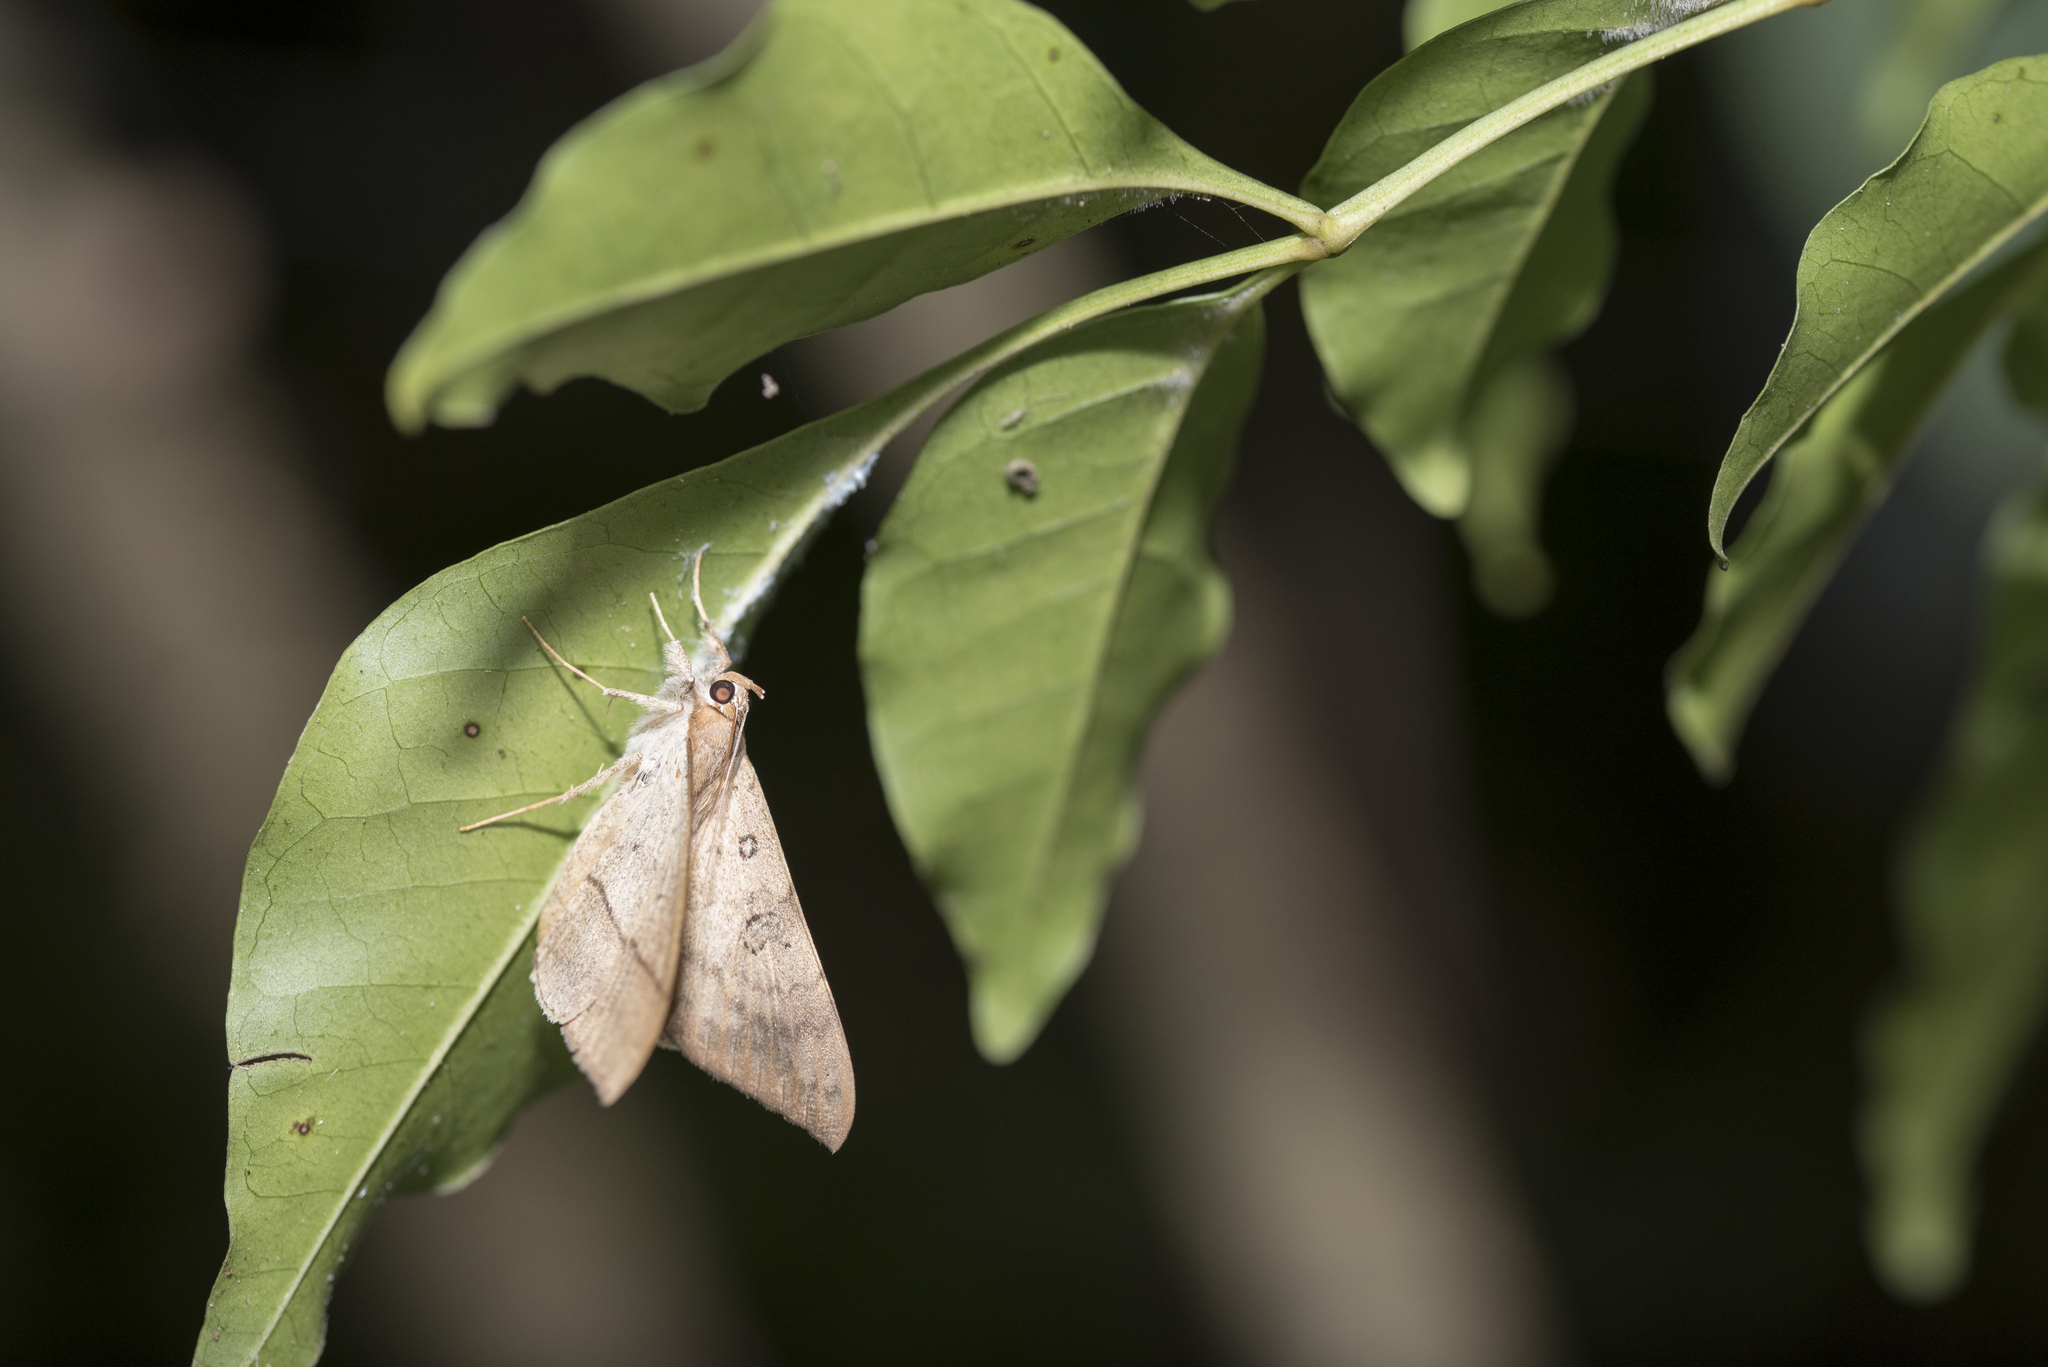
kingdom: Animalia
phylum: Arthropoda
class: Insecta
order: Lepidoptera
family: Erebidae
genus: Oxyodes
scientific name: Oxyodes scrobiculata
